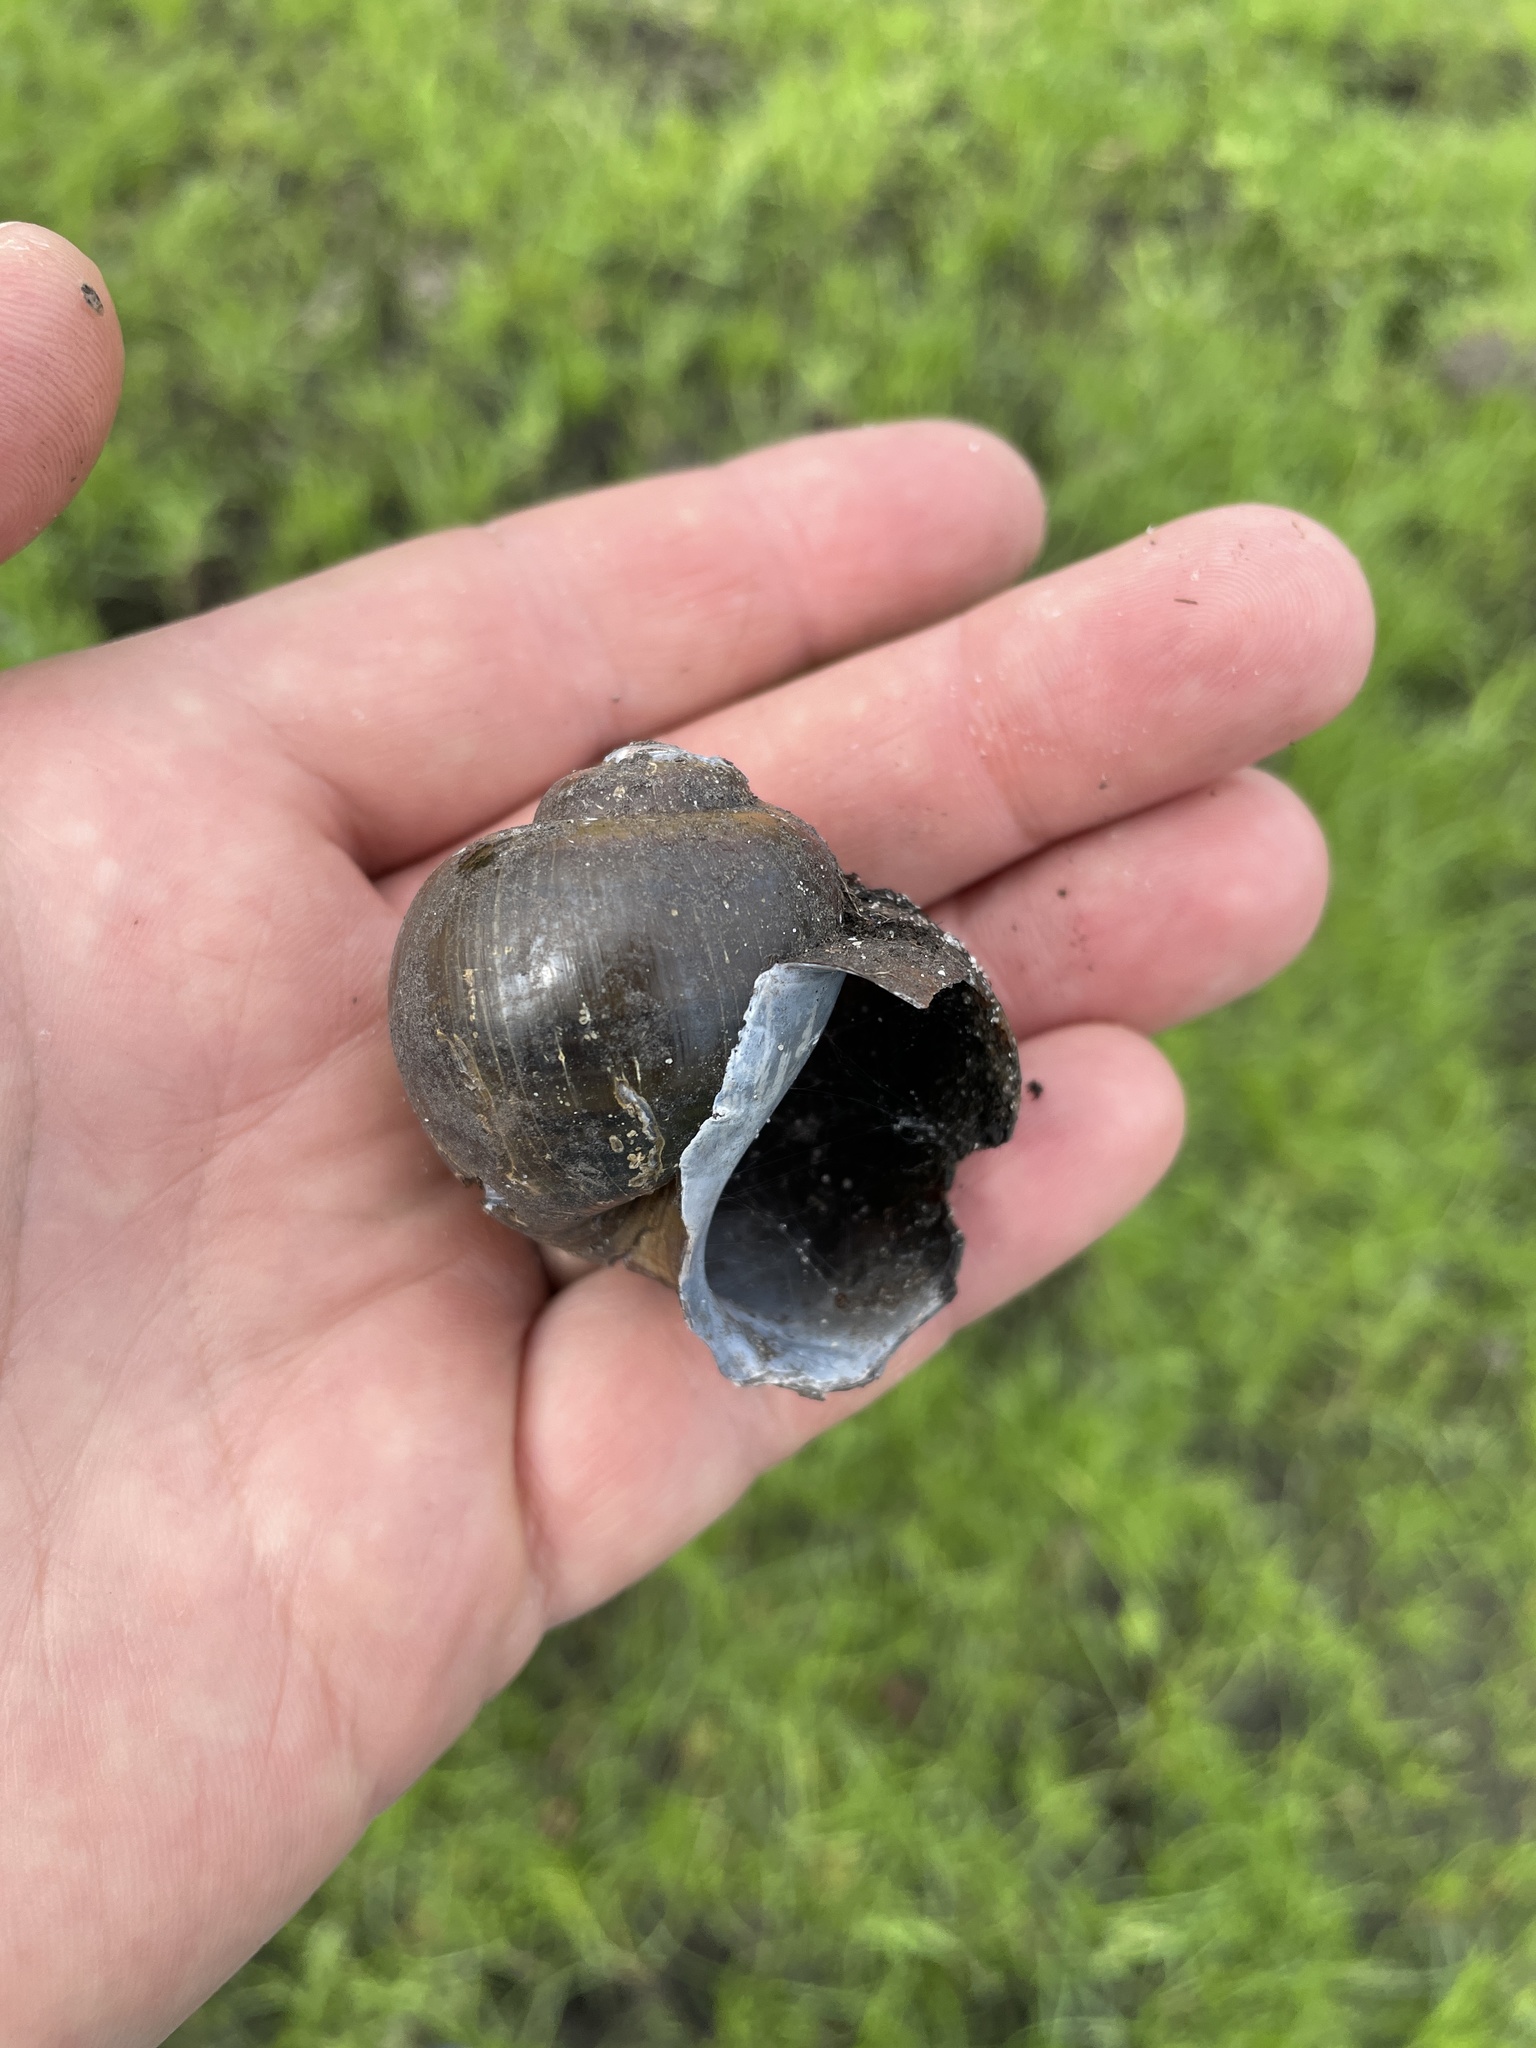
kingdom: Animalia
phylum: Mollusca
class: Gastropoda
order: Architaenioglossa
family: Ampullariidae
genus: Pila
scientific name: Pila occidentalis
